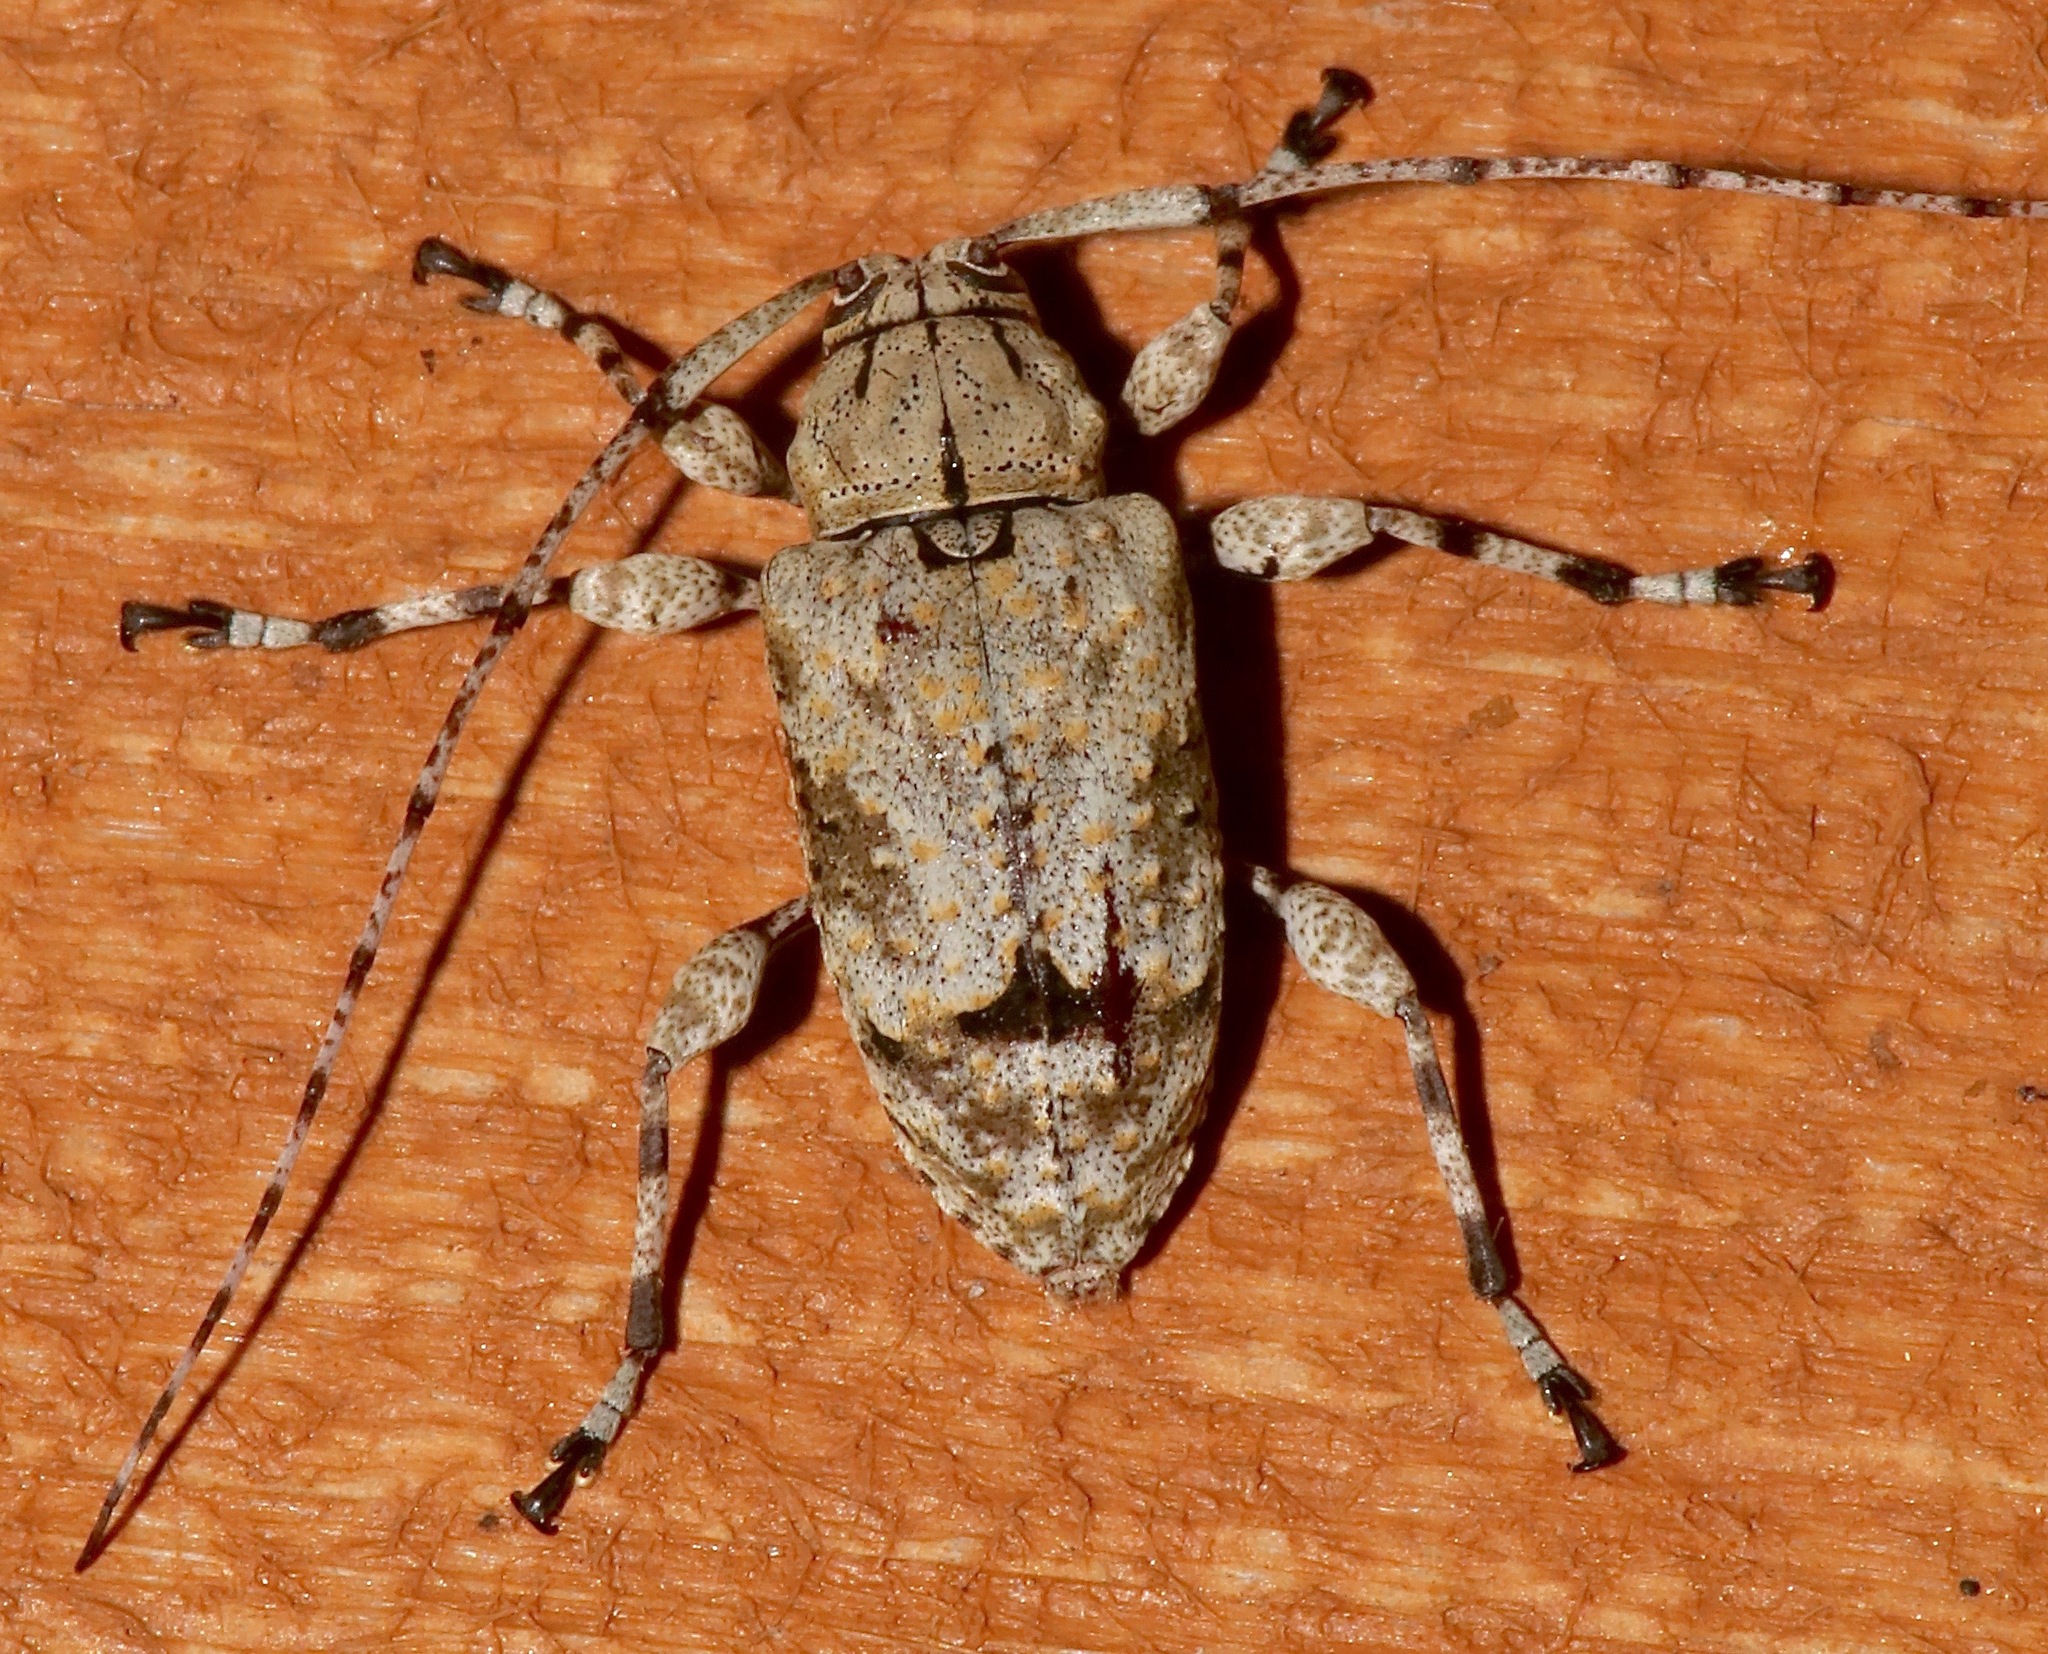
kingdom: Animalia
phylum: Arthropoda
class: Insecta
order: Coleoptera
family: Cerambycidae
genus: Leptostylopsis
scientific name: Leptostylopsis argentatus
